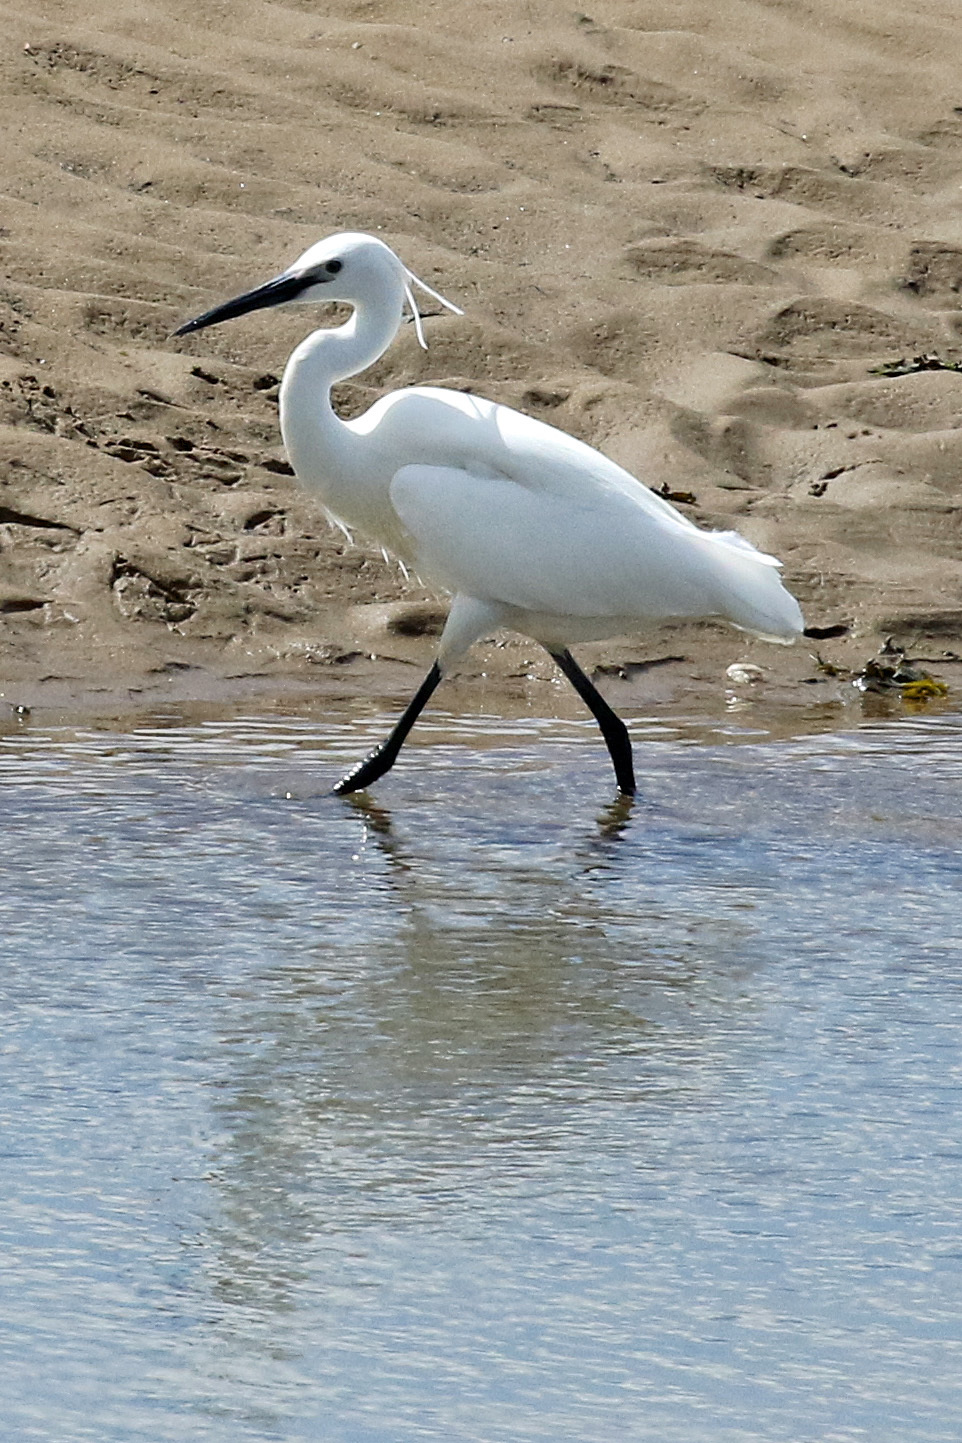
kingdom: Animalia
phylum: Chordata
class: Aves
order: Pelecaniformes
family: Ardeidae
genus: Egretta
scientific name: Egretta garzetta
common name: Little egret
